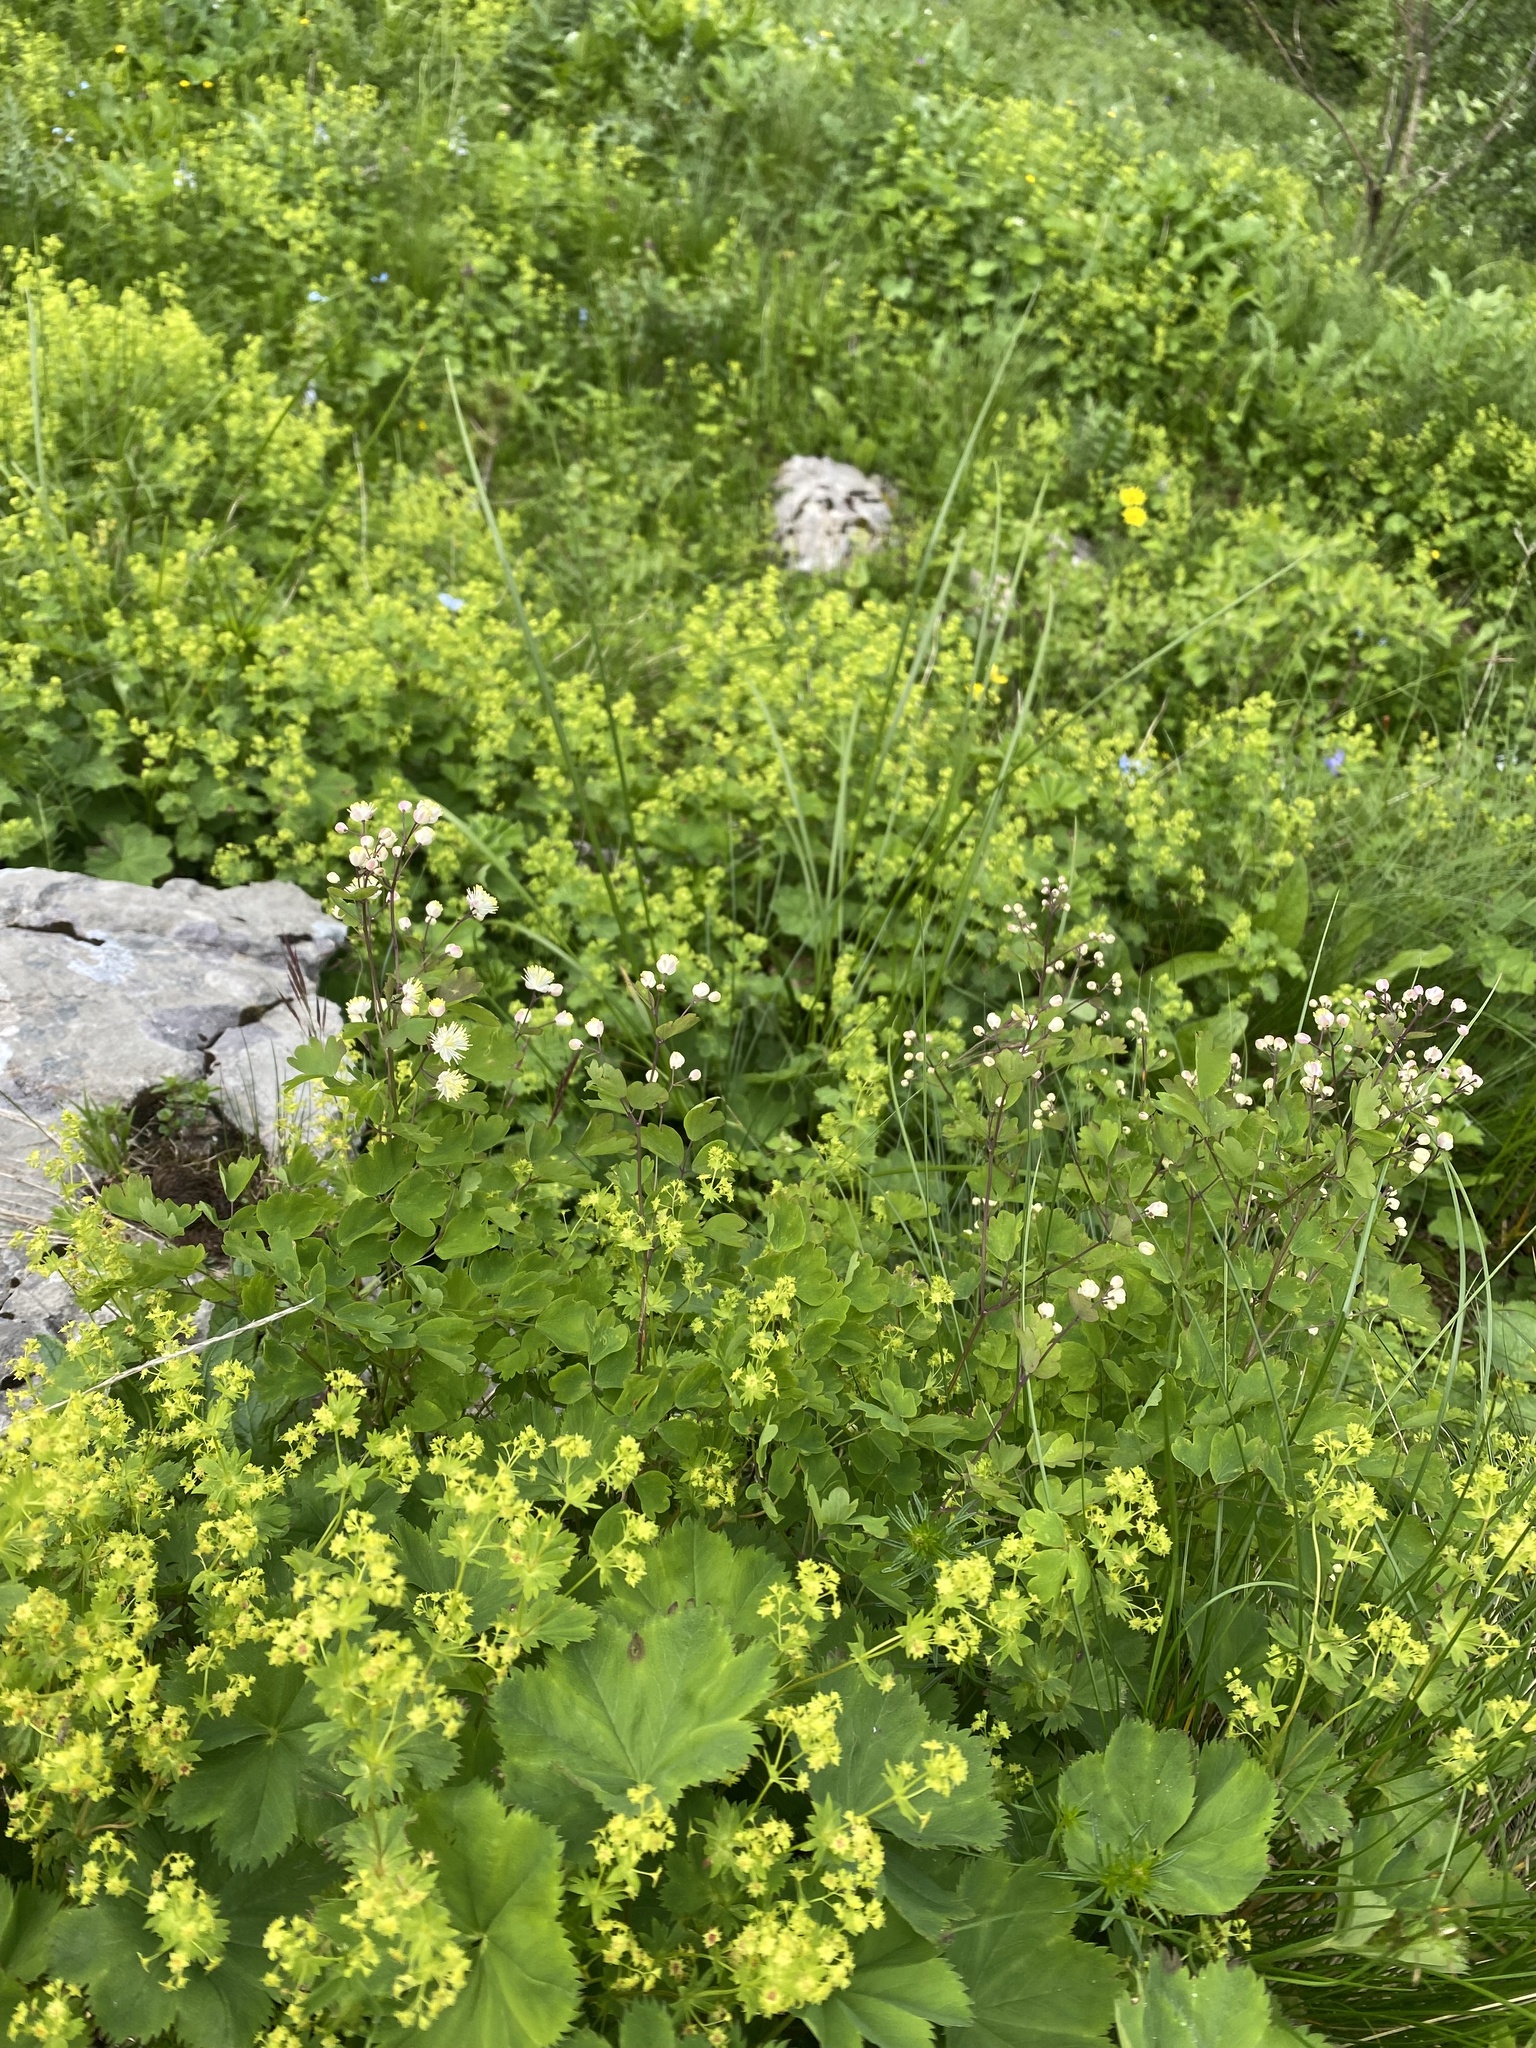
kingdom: Plantae
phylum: Tracheophyta
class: Magnoliopsida
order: Ranunculales
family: Ranunculaceae
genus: Thalictrum
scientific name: Thalictrum aquilegiifolium
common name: French meadow-rue
